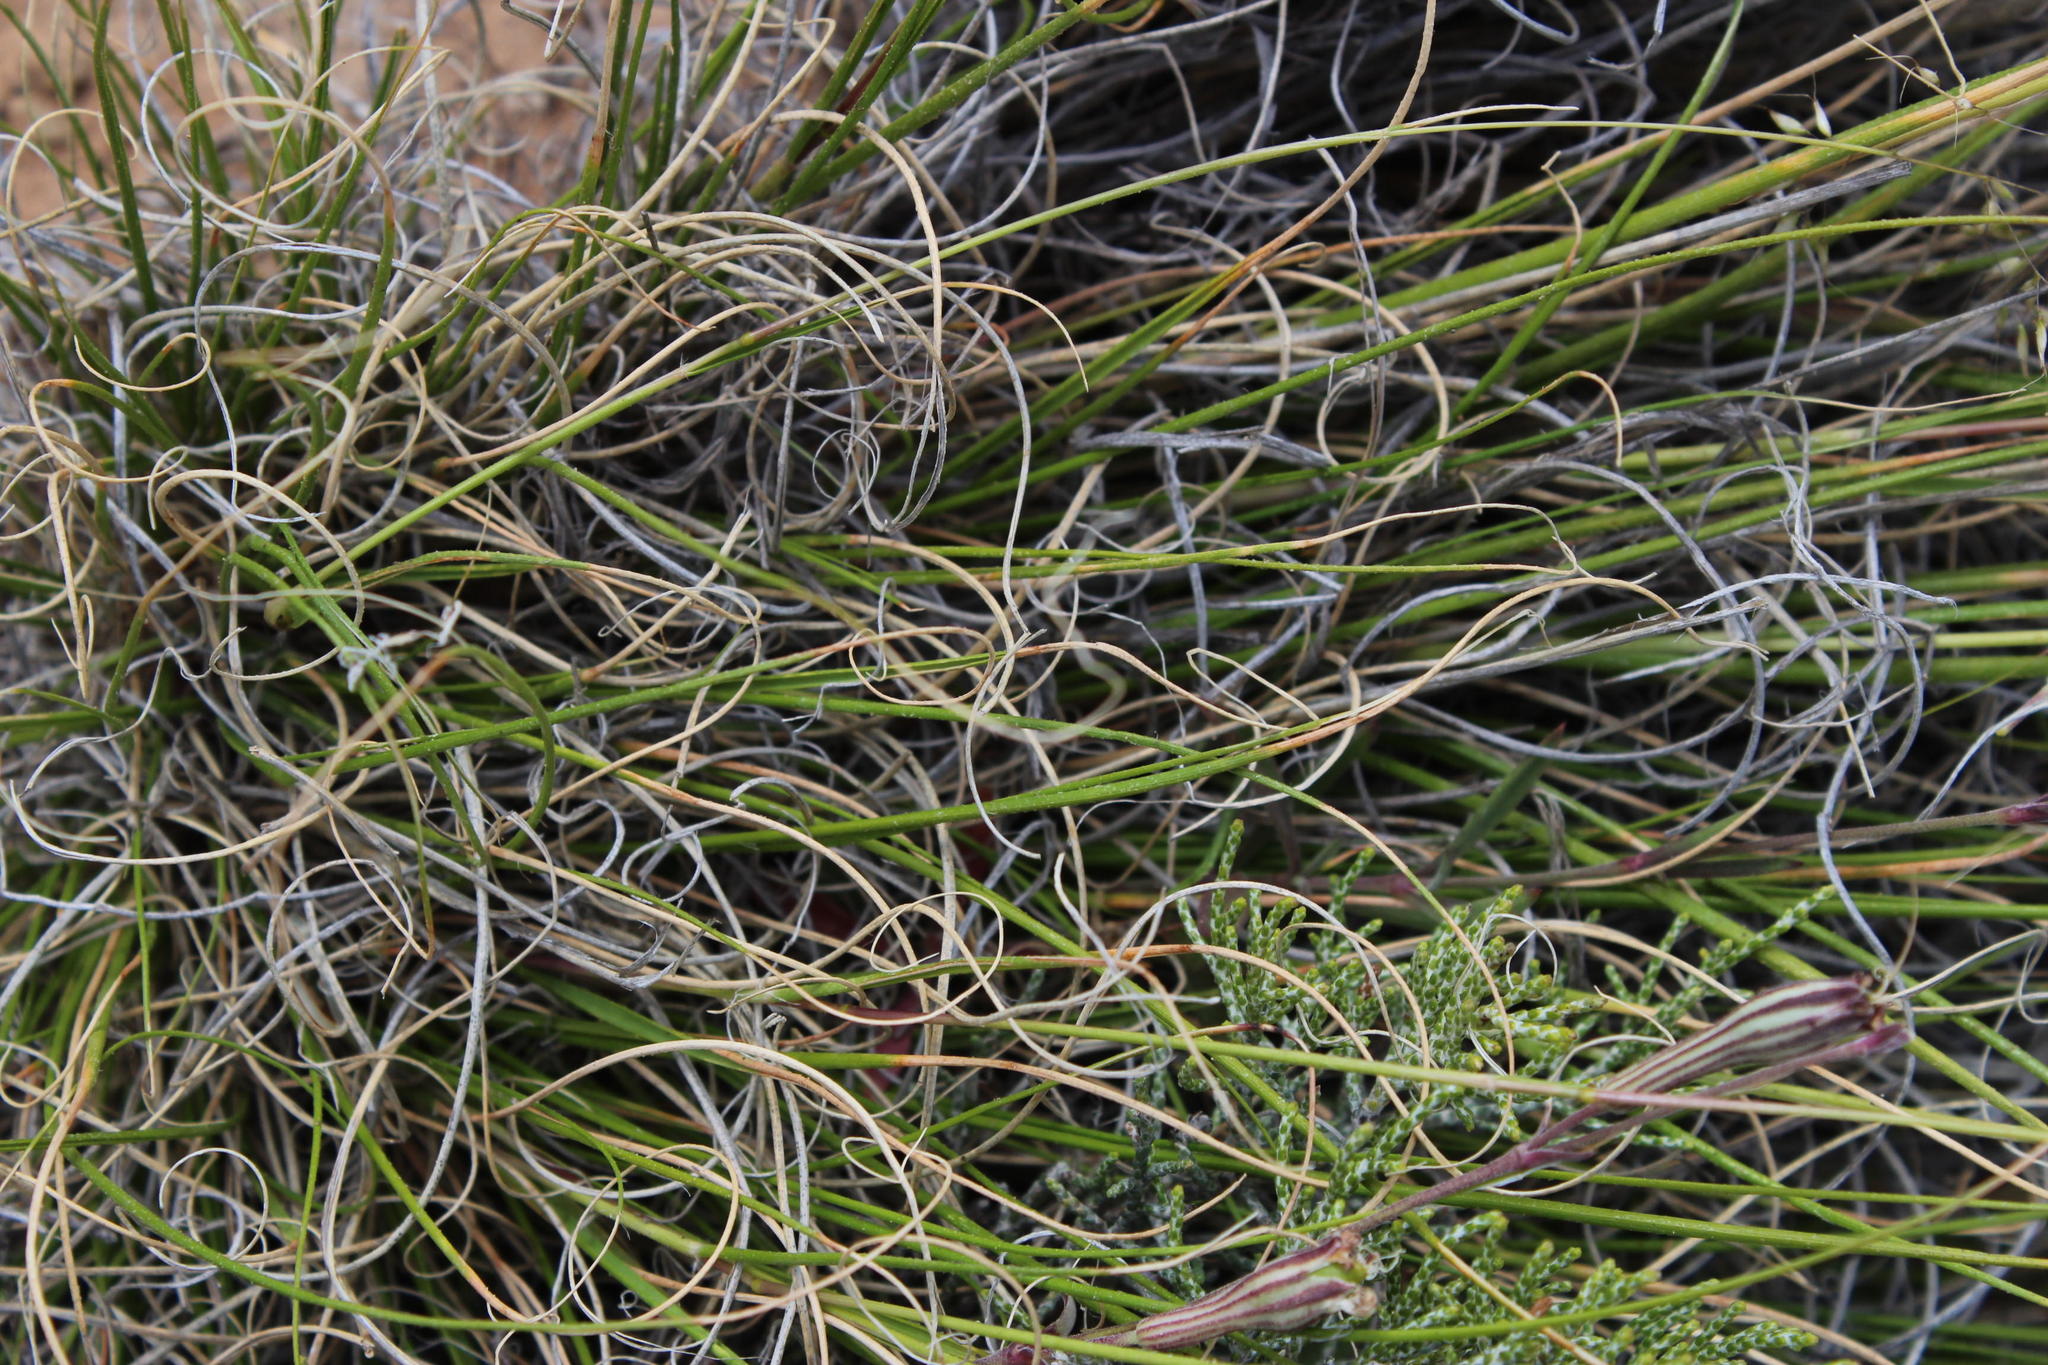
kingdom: Plantae
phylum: Tracheophyta
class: Liliopsida
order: Poales
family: Poaceae
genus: Pentameris
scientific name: Pentameris colorata
